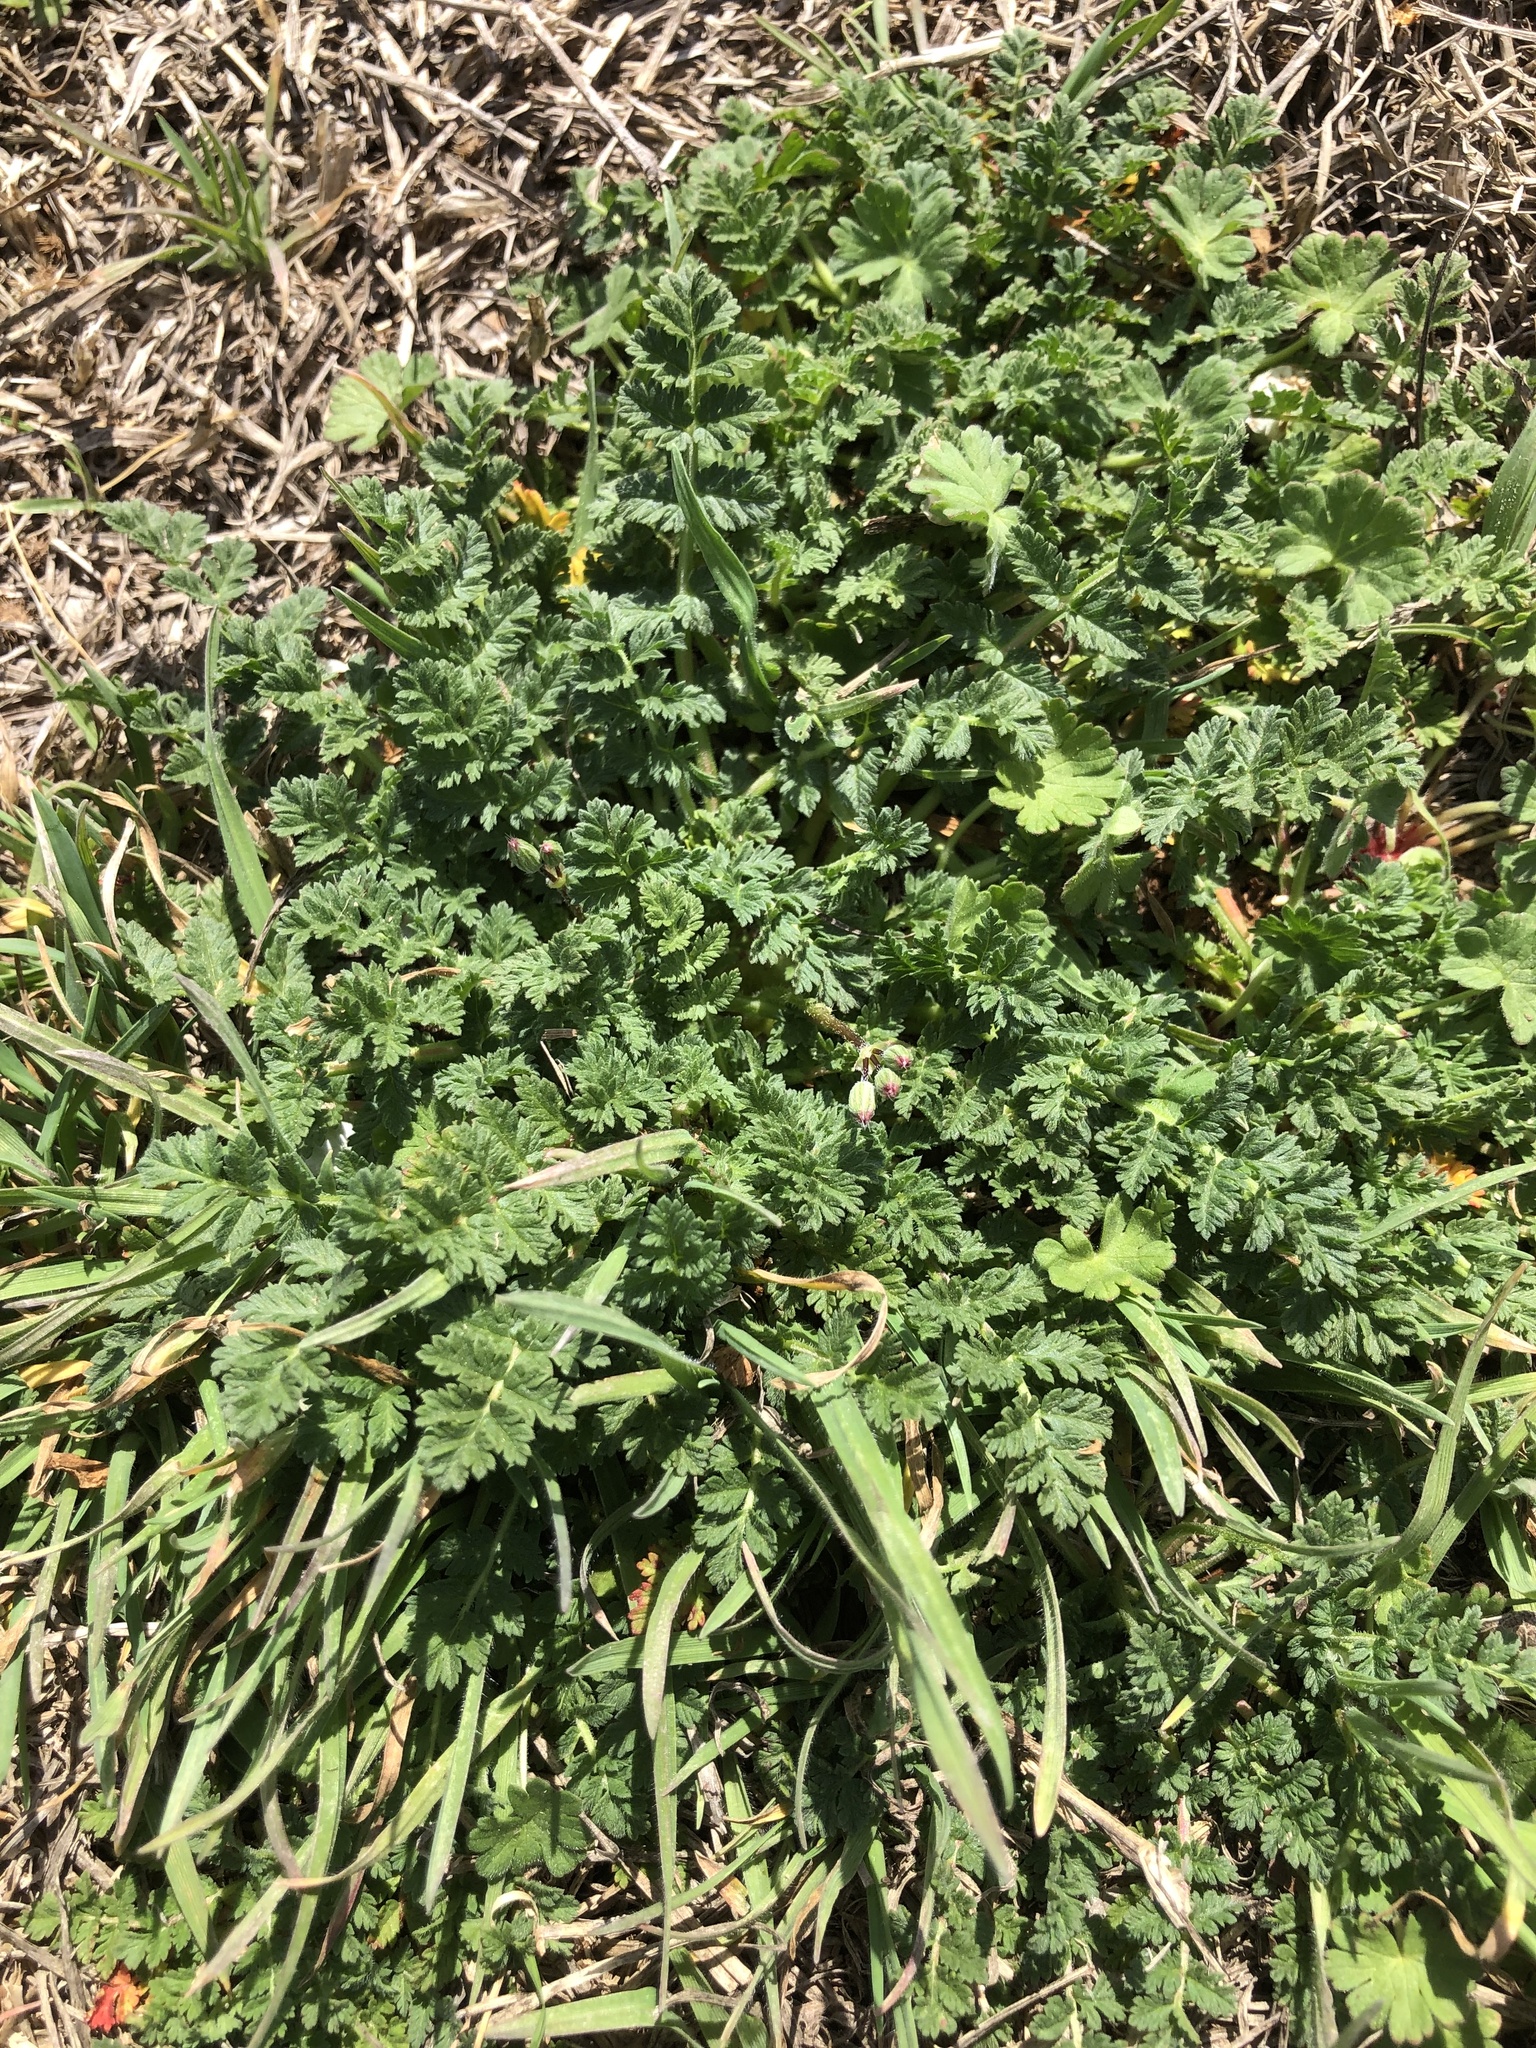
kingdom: Plantae
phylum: Tracheophyta
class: Magnoliopsida
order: Geraniales
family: Geraniaceae
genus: Erodium
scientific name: Erodium cicutarium
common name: Common stork's-bill
